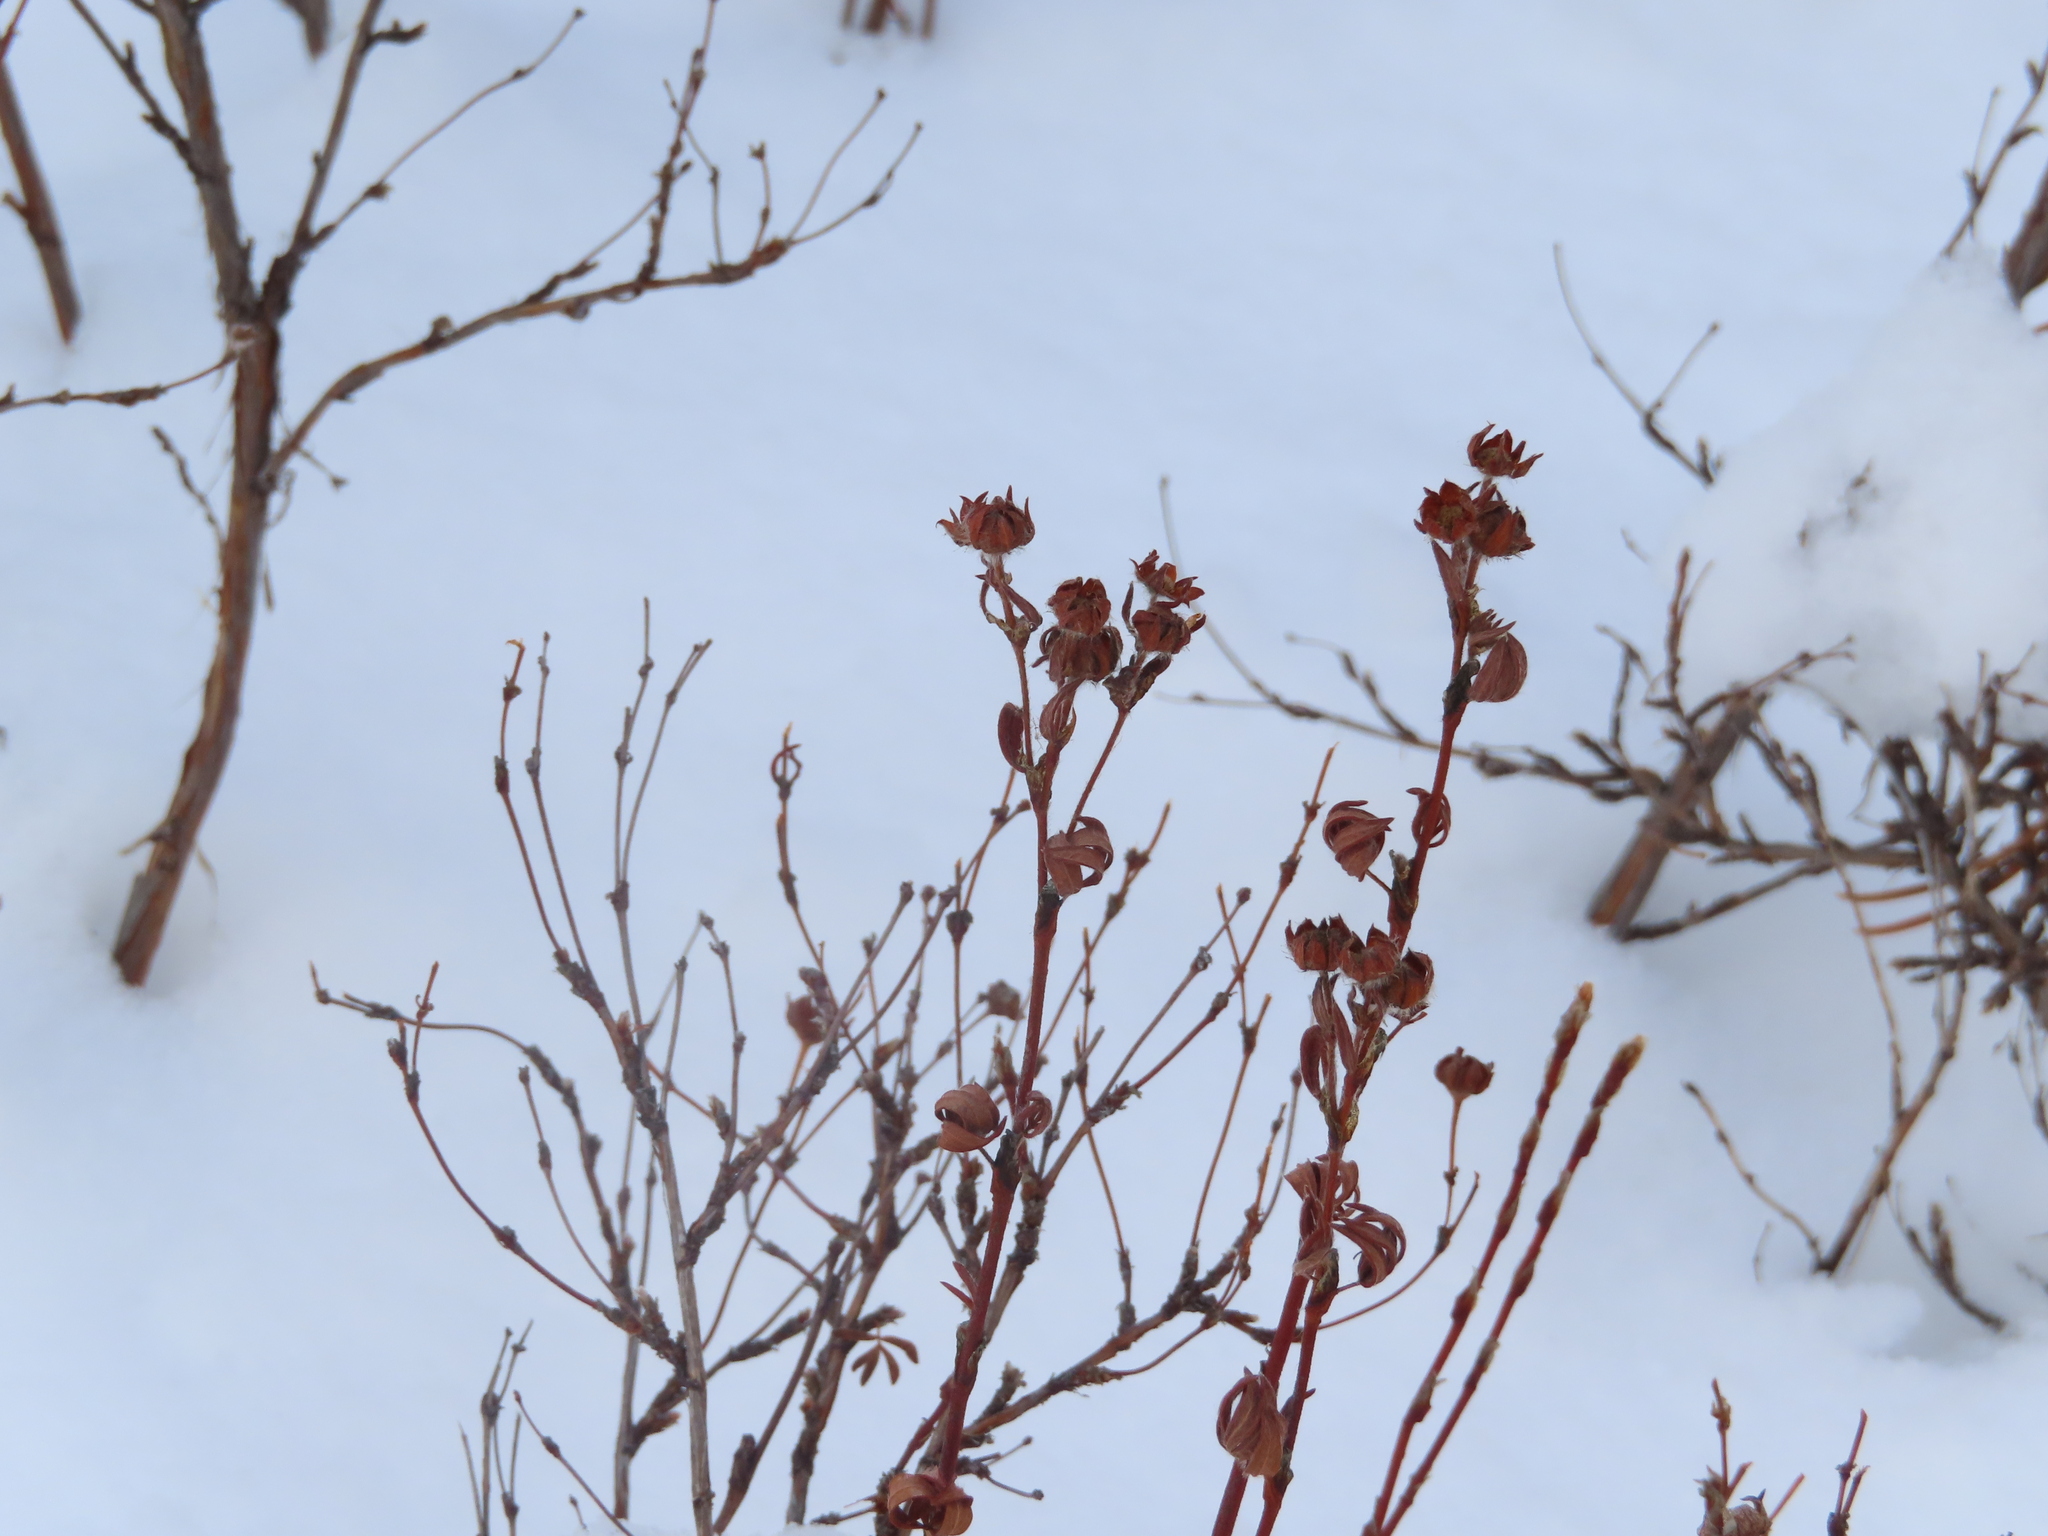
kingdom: Plantae
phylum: Tracheophyta
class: Magnoliopsida
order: Rosales
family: Rosaceae
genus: Dasiphora
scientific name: Dasiphora fruticosa
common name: Shrubby cinquefoil
